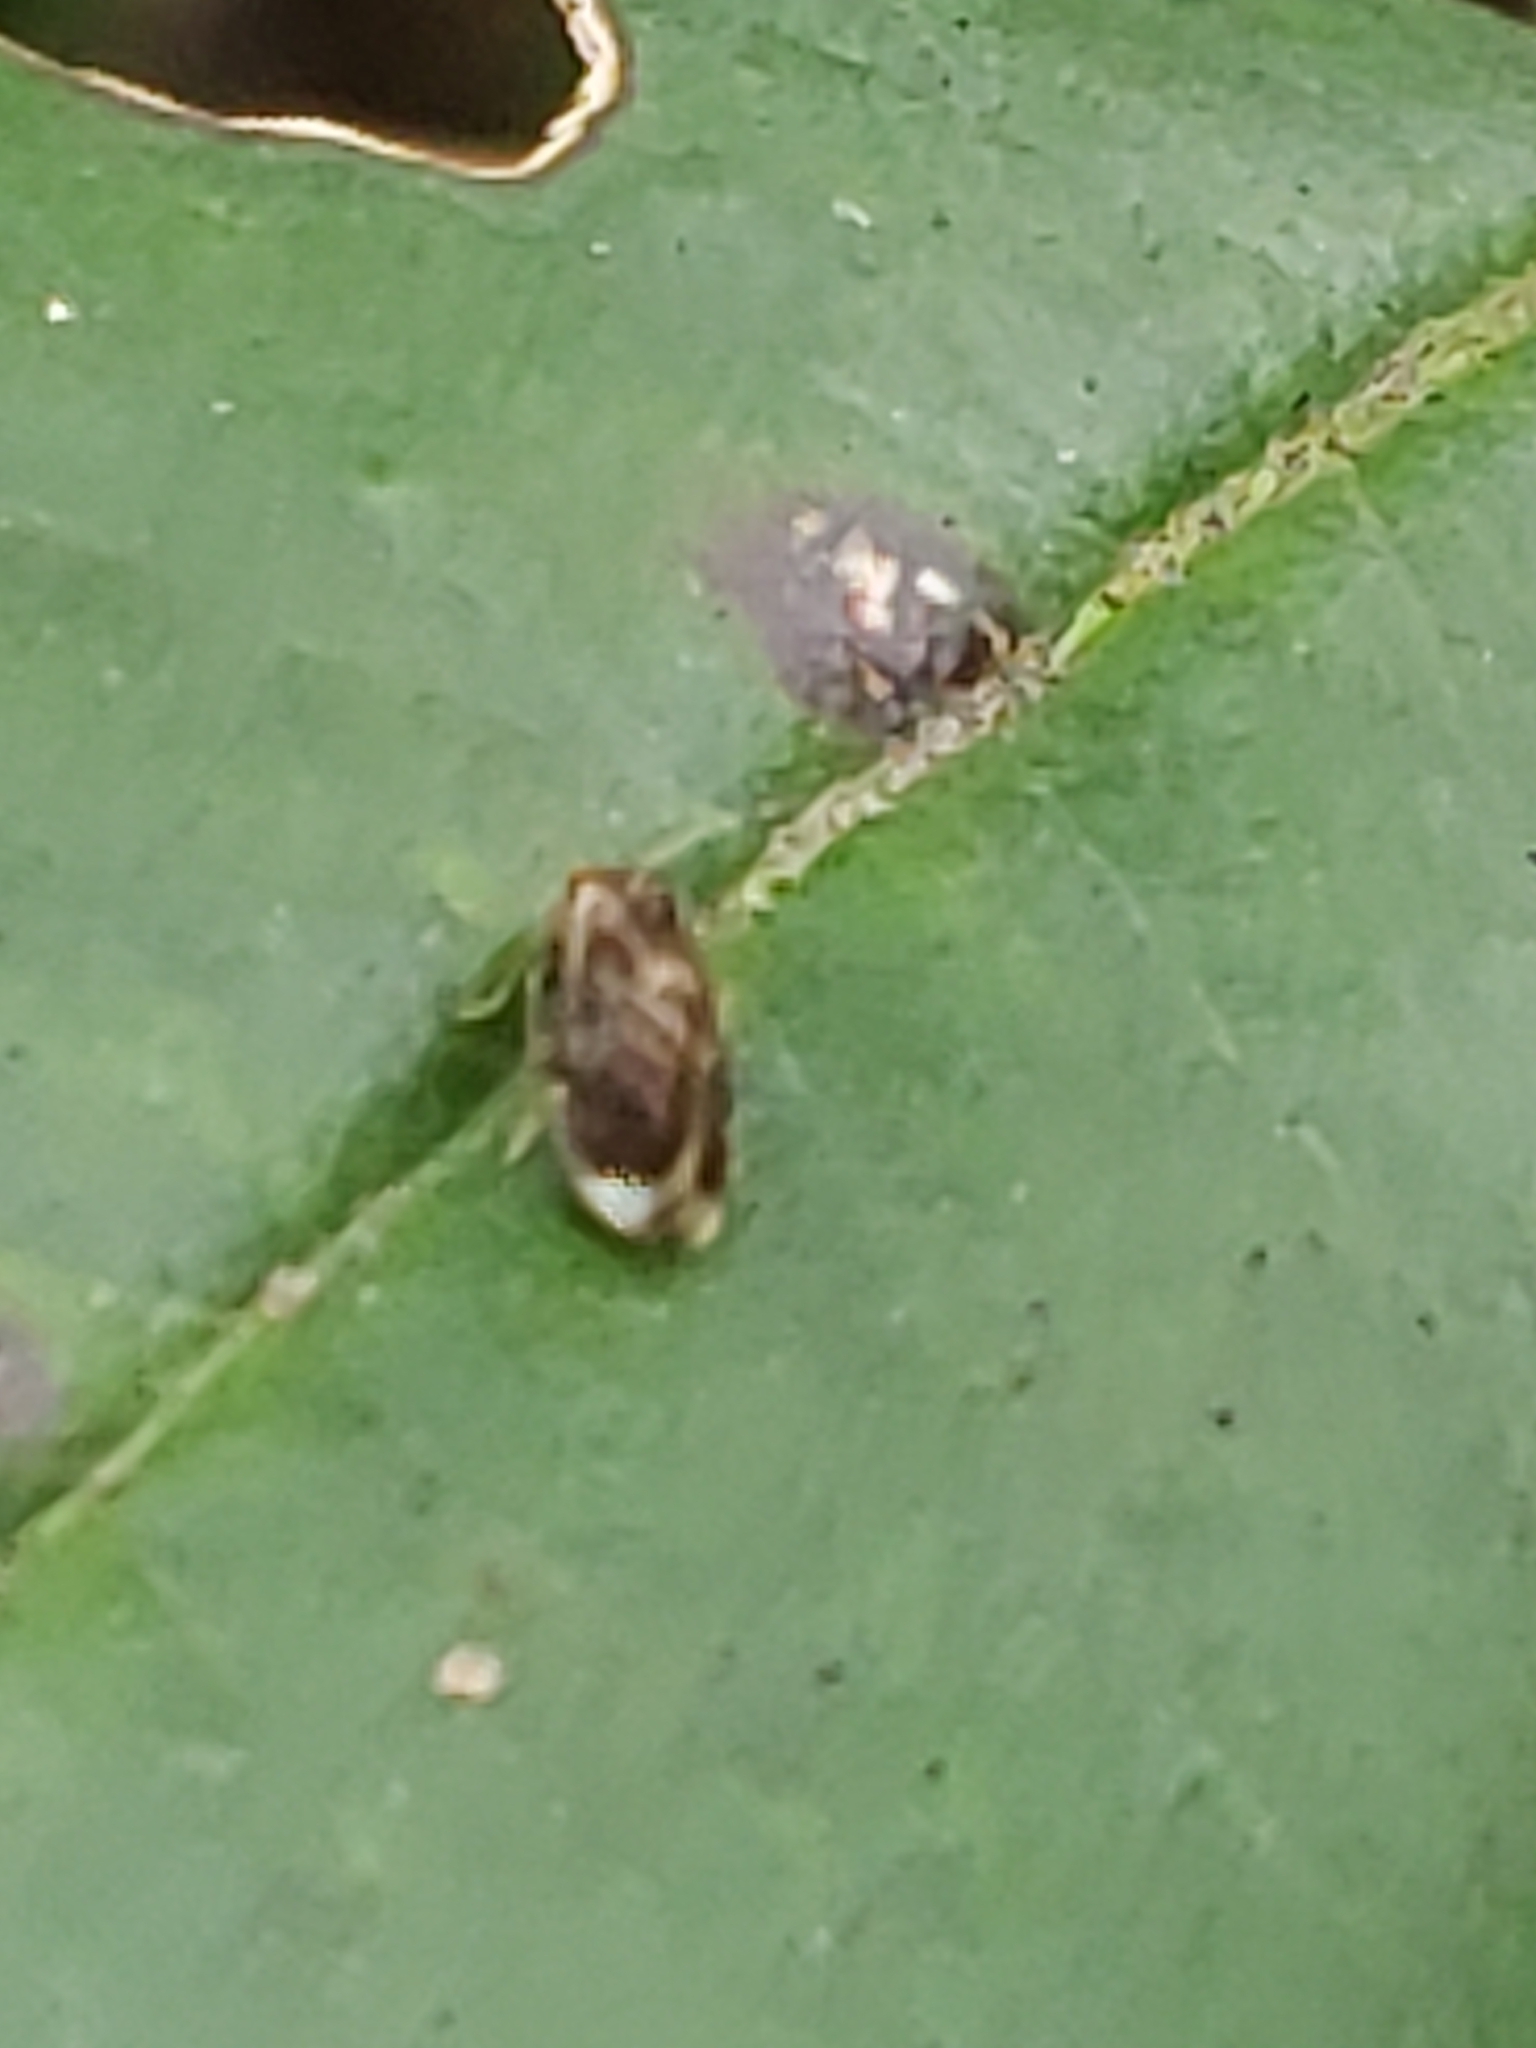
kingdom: Animalia
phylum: Arthropoda
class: Insecta
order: Psocodea
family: Amphipsocidae
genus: Polypsocus
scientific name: Polypsocus corruptus
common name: Corrupt barklouse
